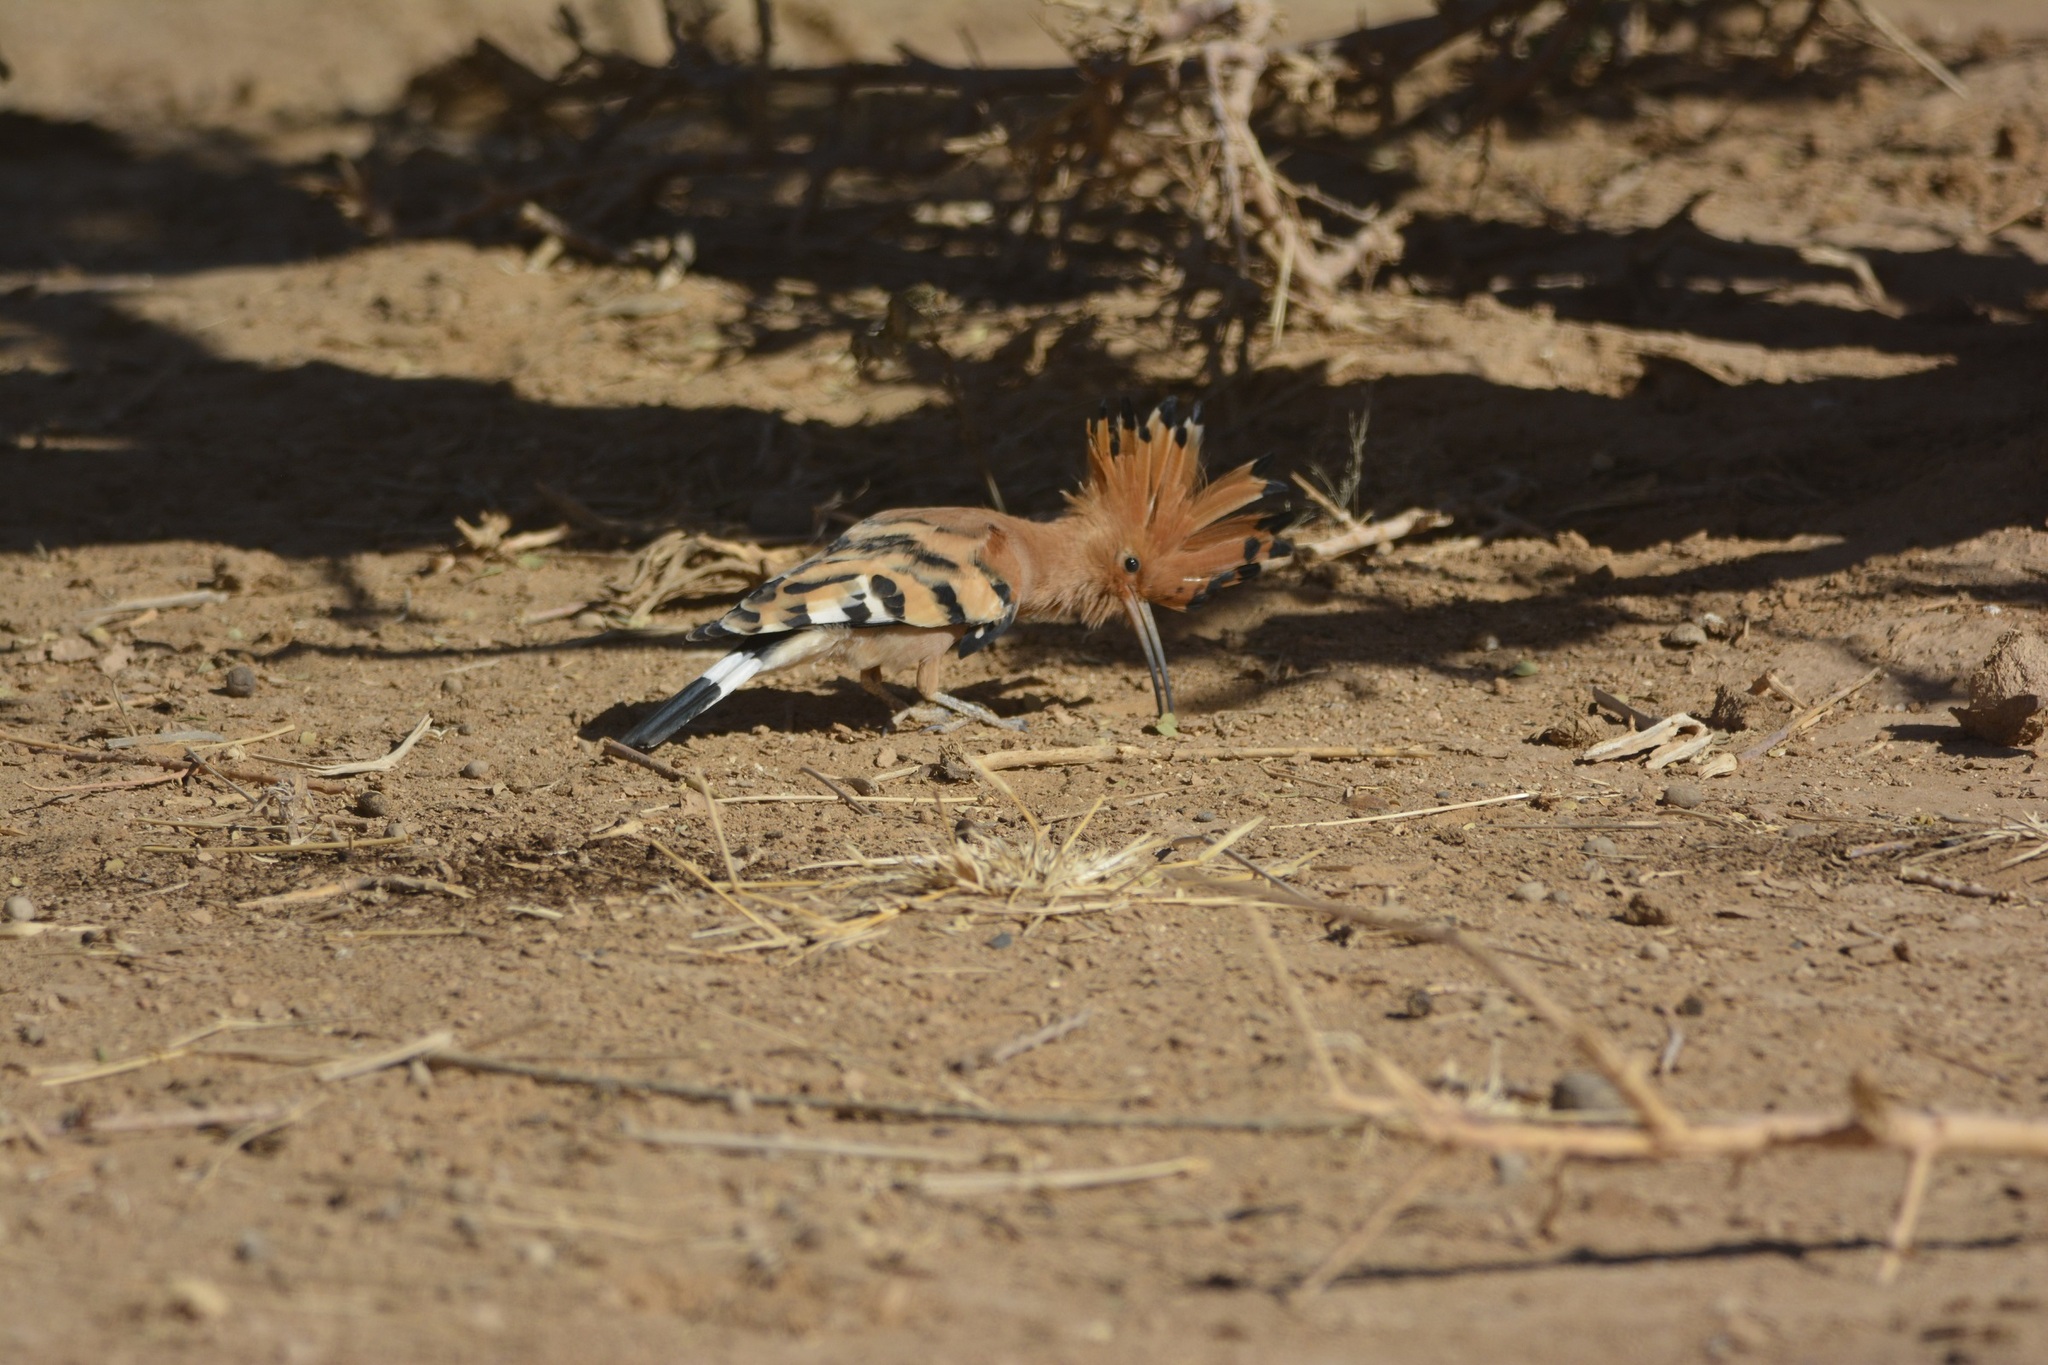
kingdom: Animalia
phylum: Chordata
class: Aves
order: Bucerotiformes
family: Upupidae
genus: Upupa
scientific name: Upupa epops
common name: Eurasian hoopoe
